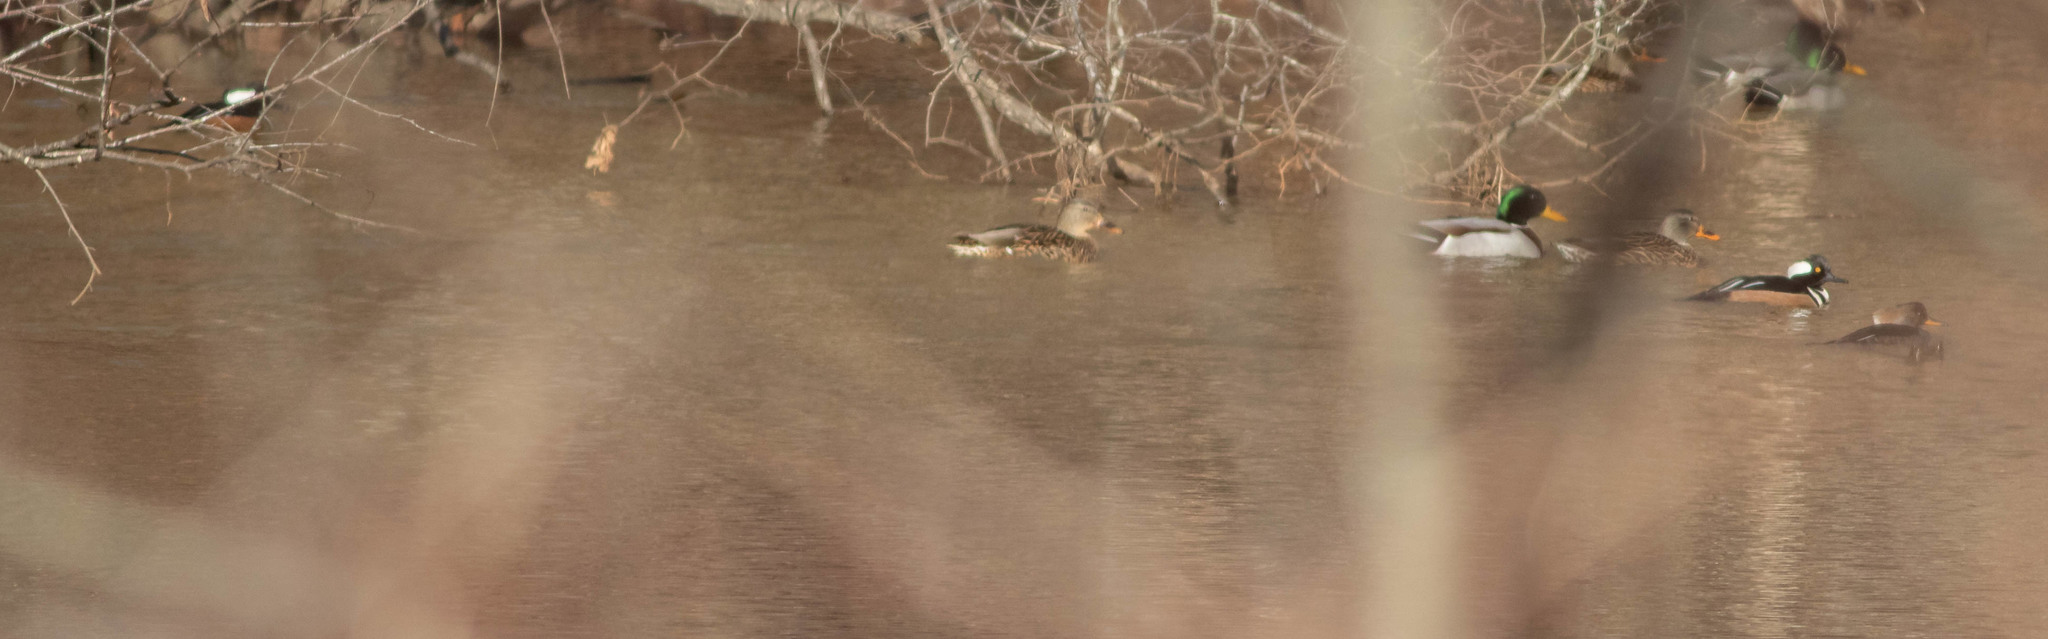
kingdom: Animalia
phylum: Chordata
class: Aves
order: Anseriformes
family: Anatidae
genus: Lophodytes
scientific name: Lophodytes cucullatus
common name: Hooded merganser
